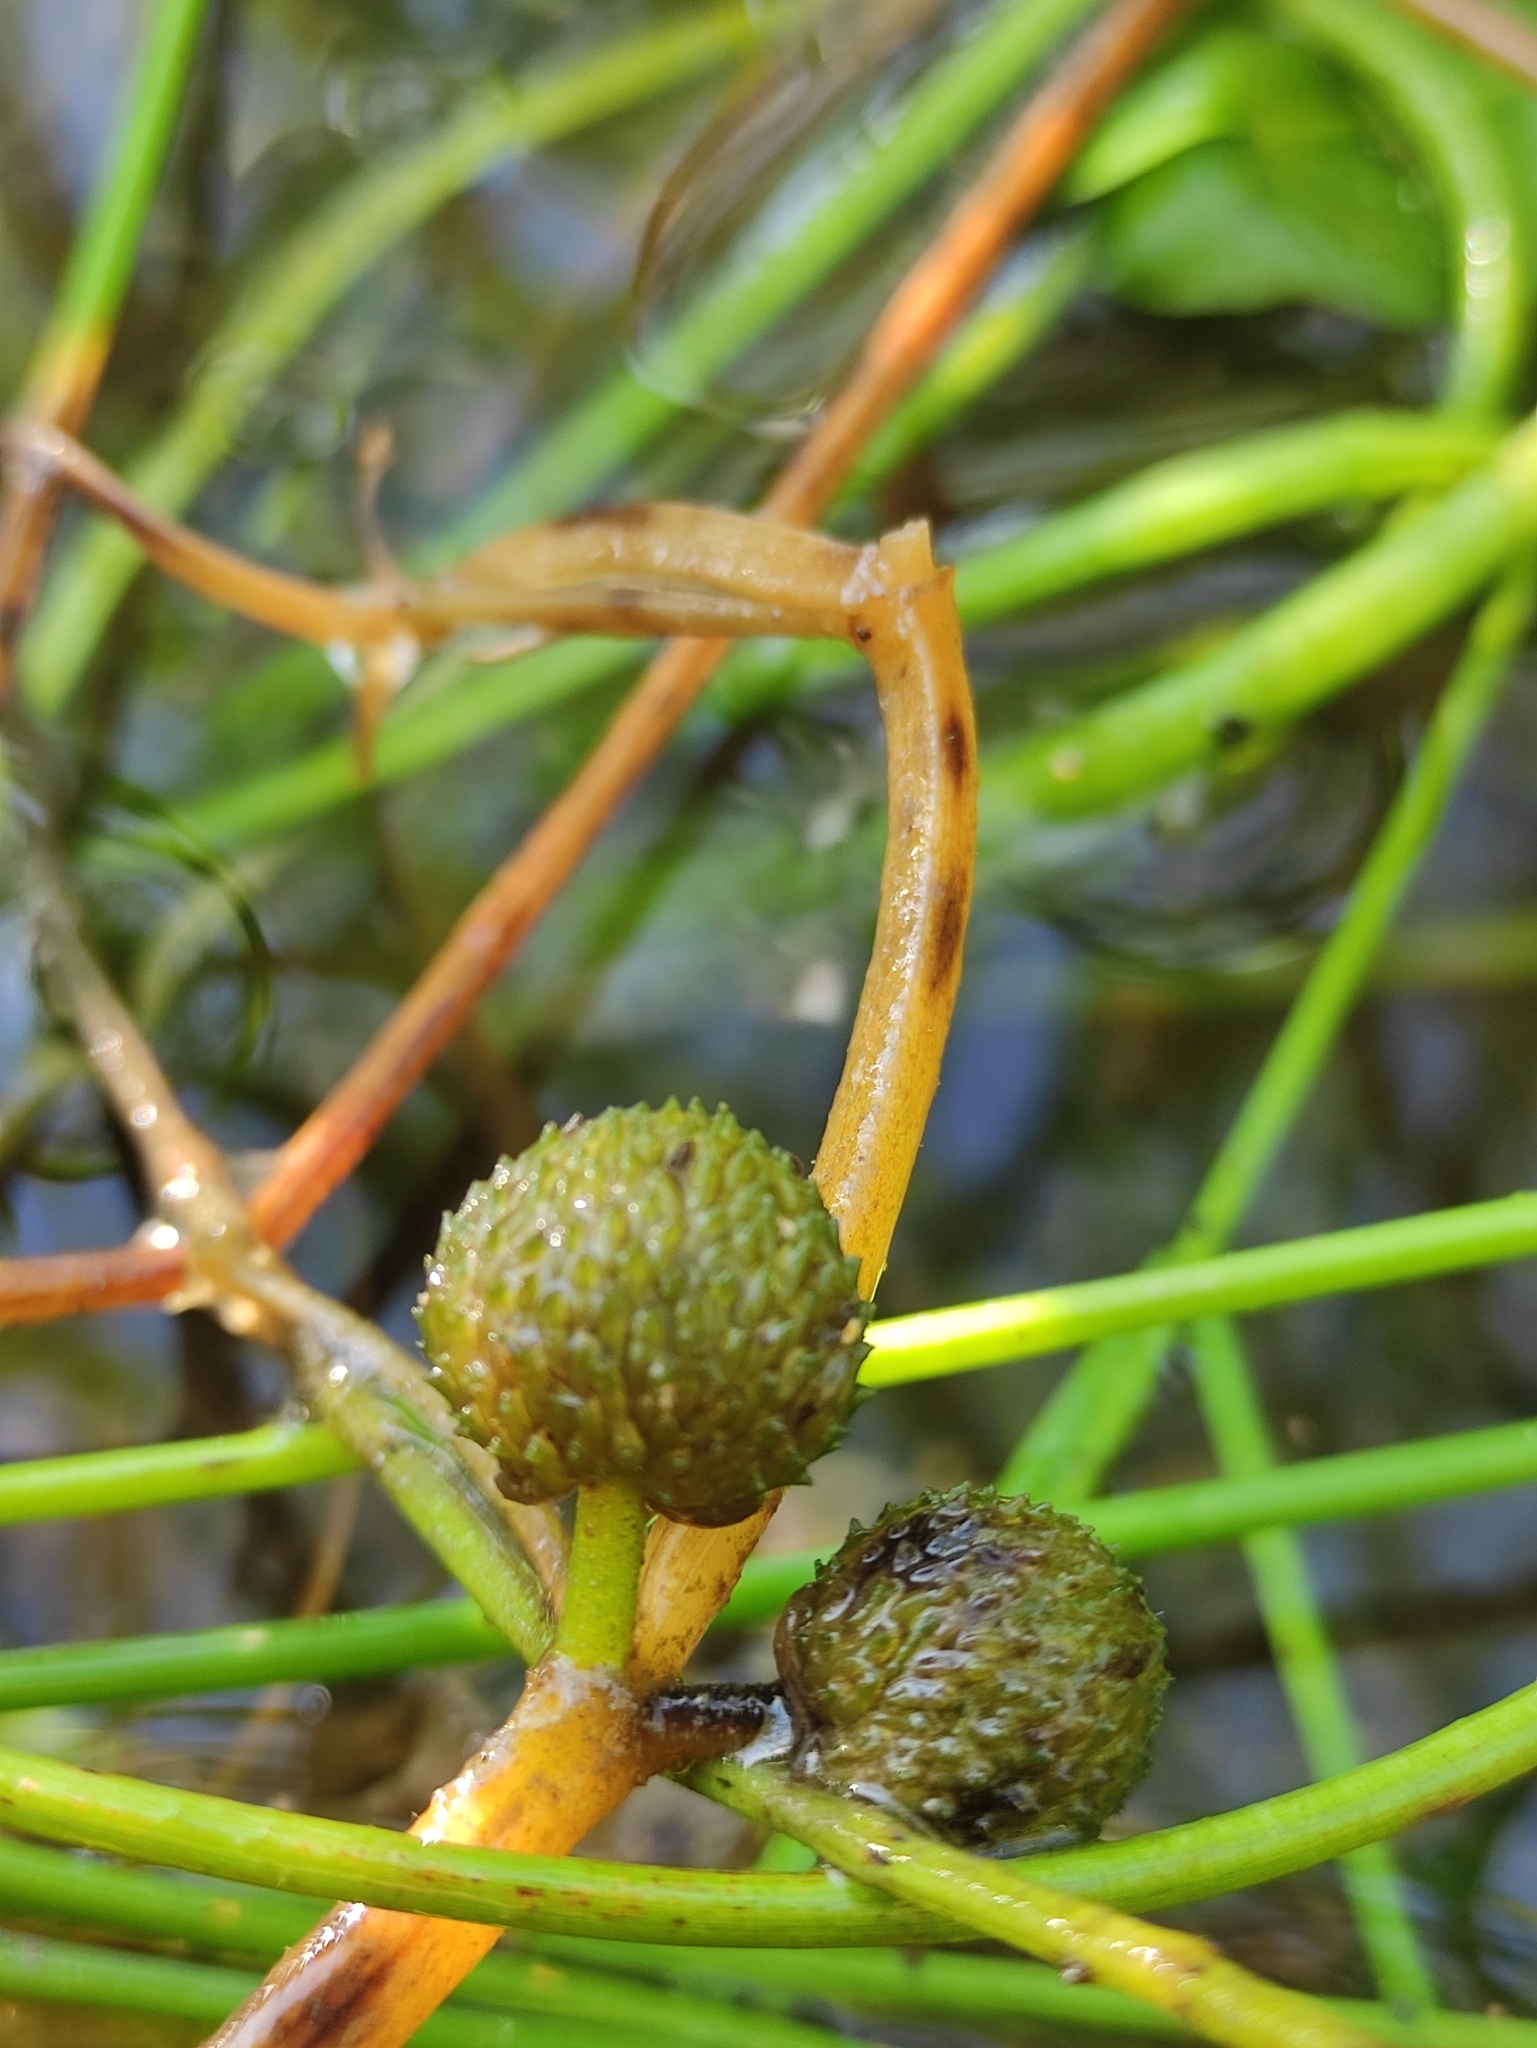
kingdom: Plantae
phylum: Tracheophyta
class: Liliopsida
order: Alismatales
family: Alismataceae
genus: Sagittaria
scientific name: Sagittaria natans
